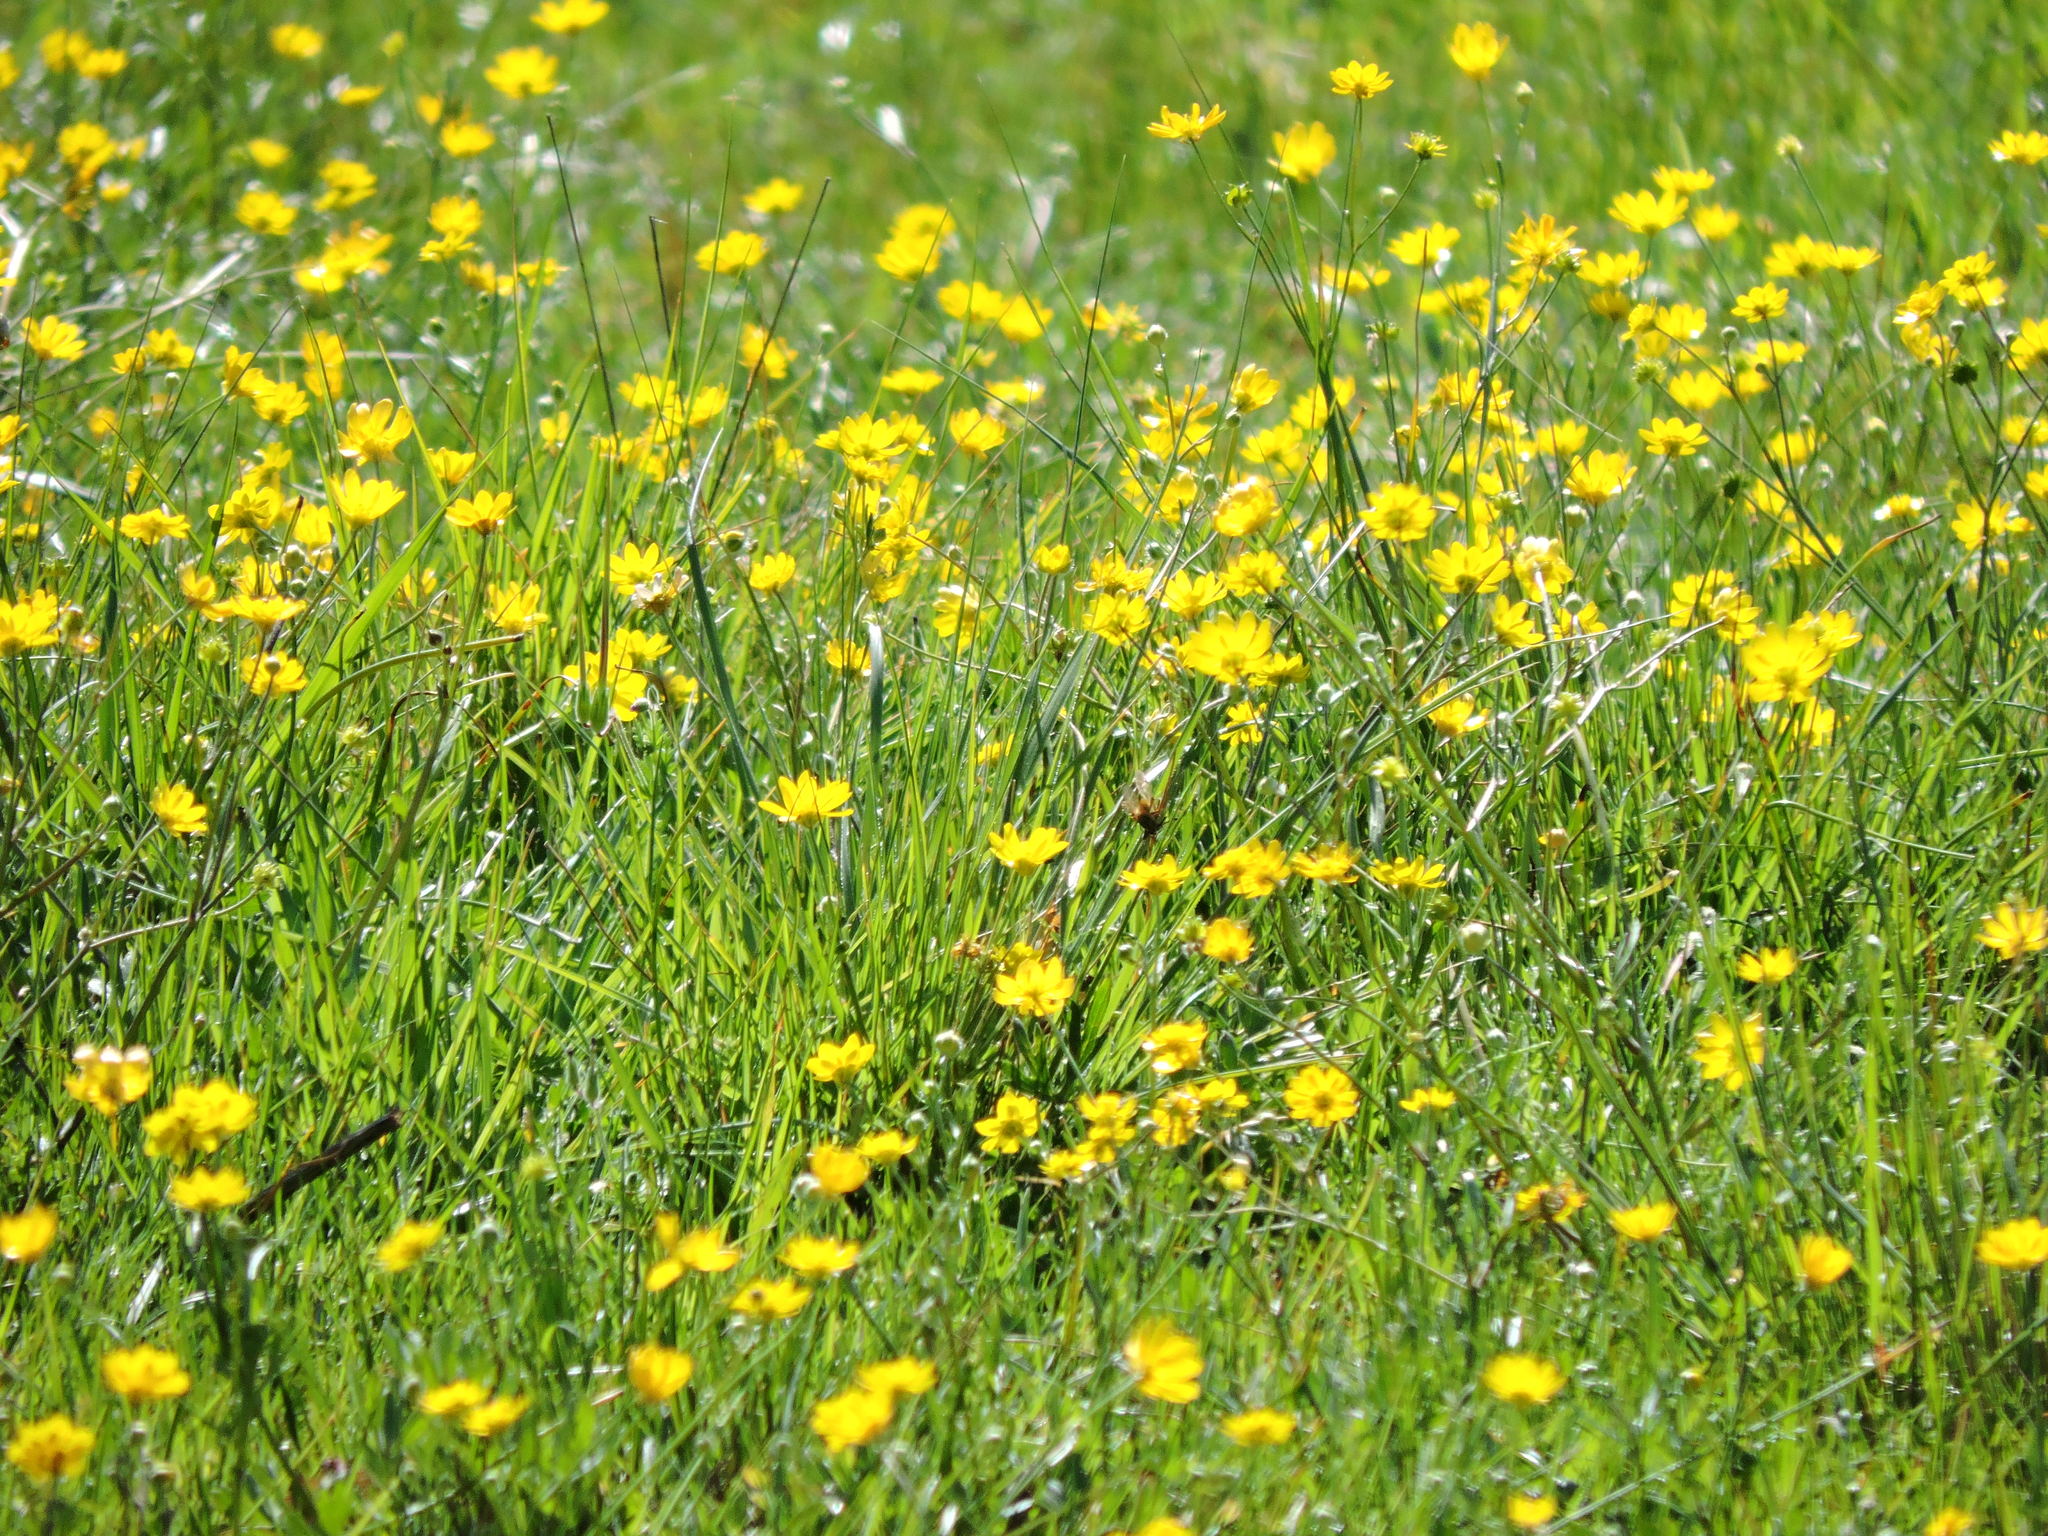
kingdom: Plantae
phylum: Tracheophyta
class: Magnoliopsida
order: Ranunculales
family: Ranunculaceae
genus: Ranunculus
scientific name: Ranunculus californicus
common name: California buttercup
